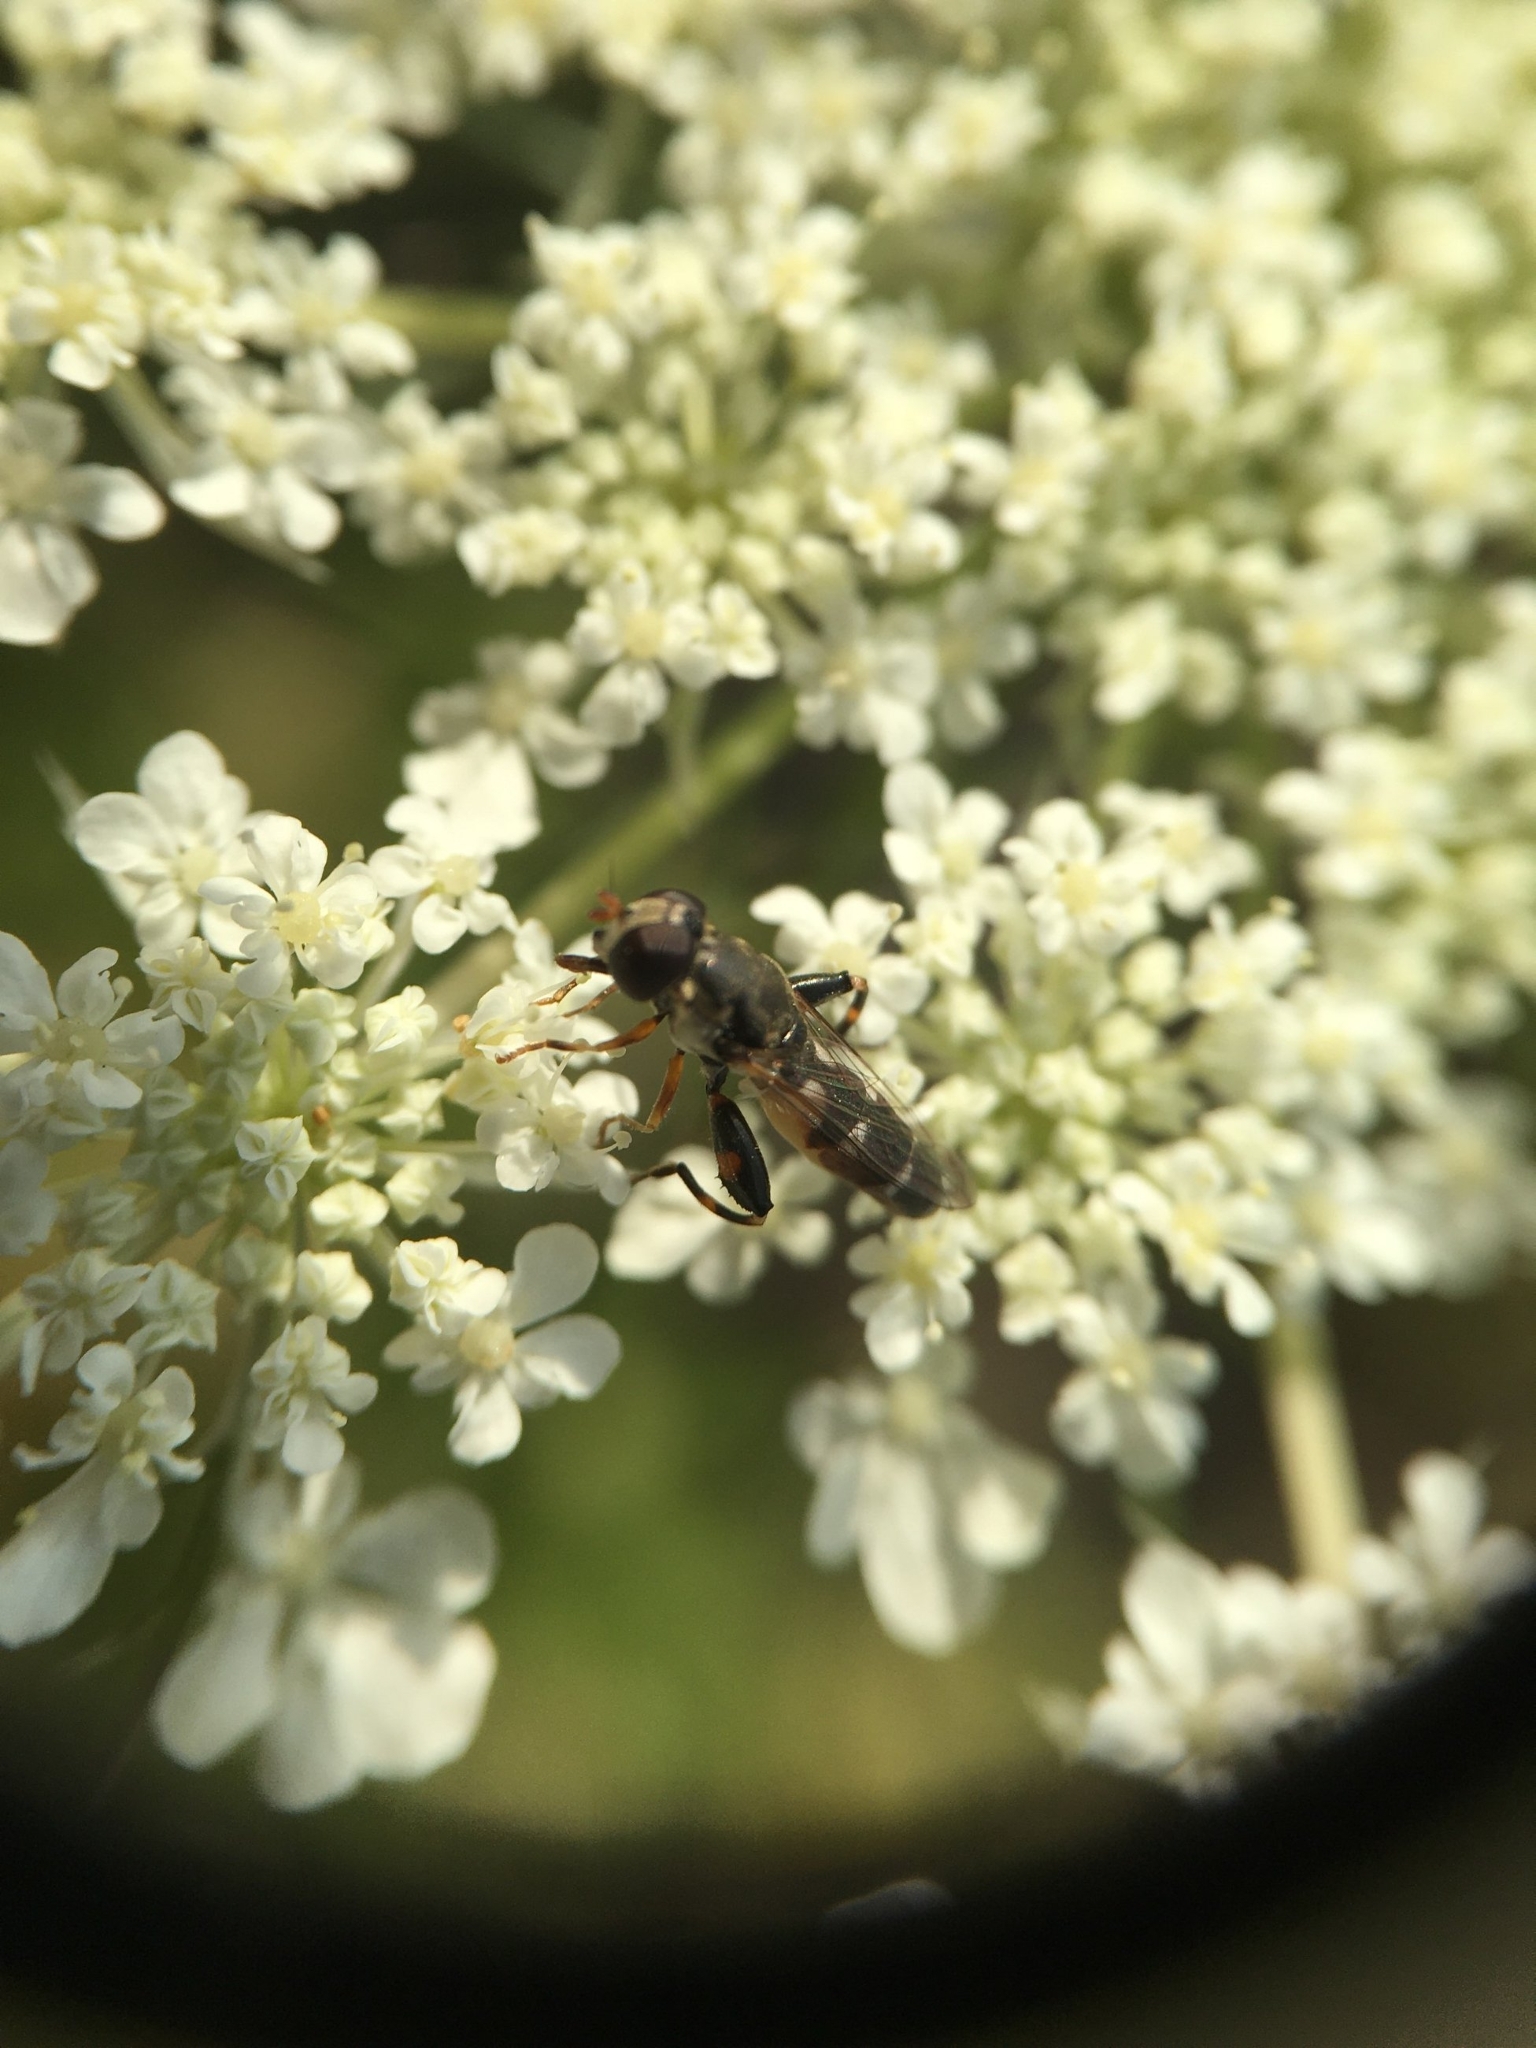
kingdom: Animalia
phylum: Arthropoda
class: Insecta
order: Diptera
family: Syrphidae
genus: Syritta
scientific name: Syritta pipiens
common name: Hover fly
